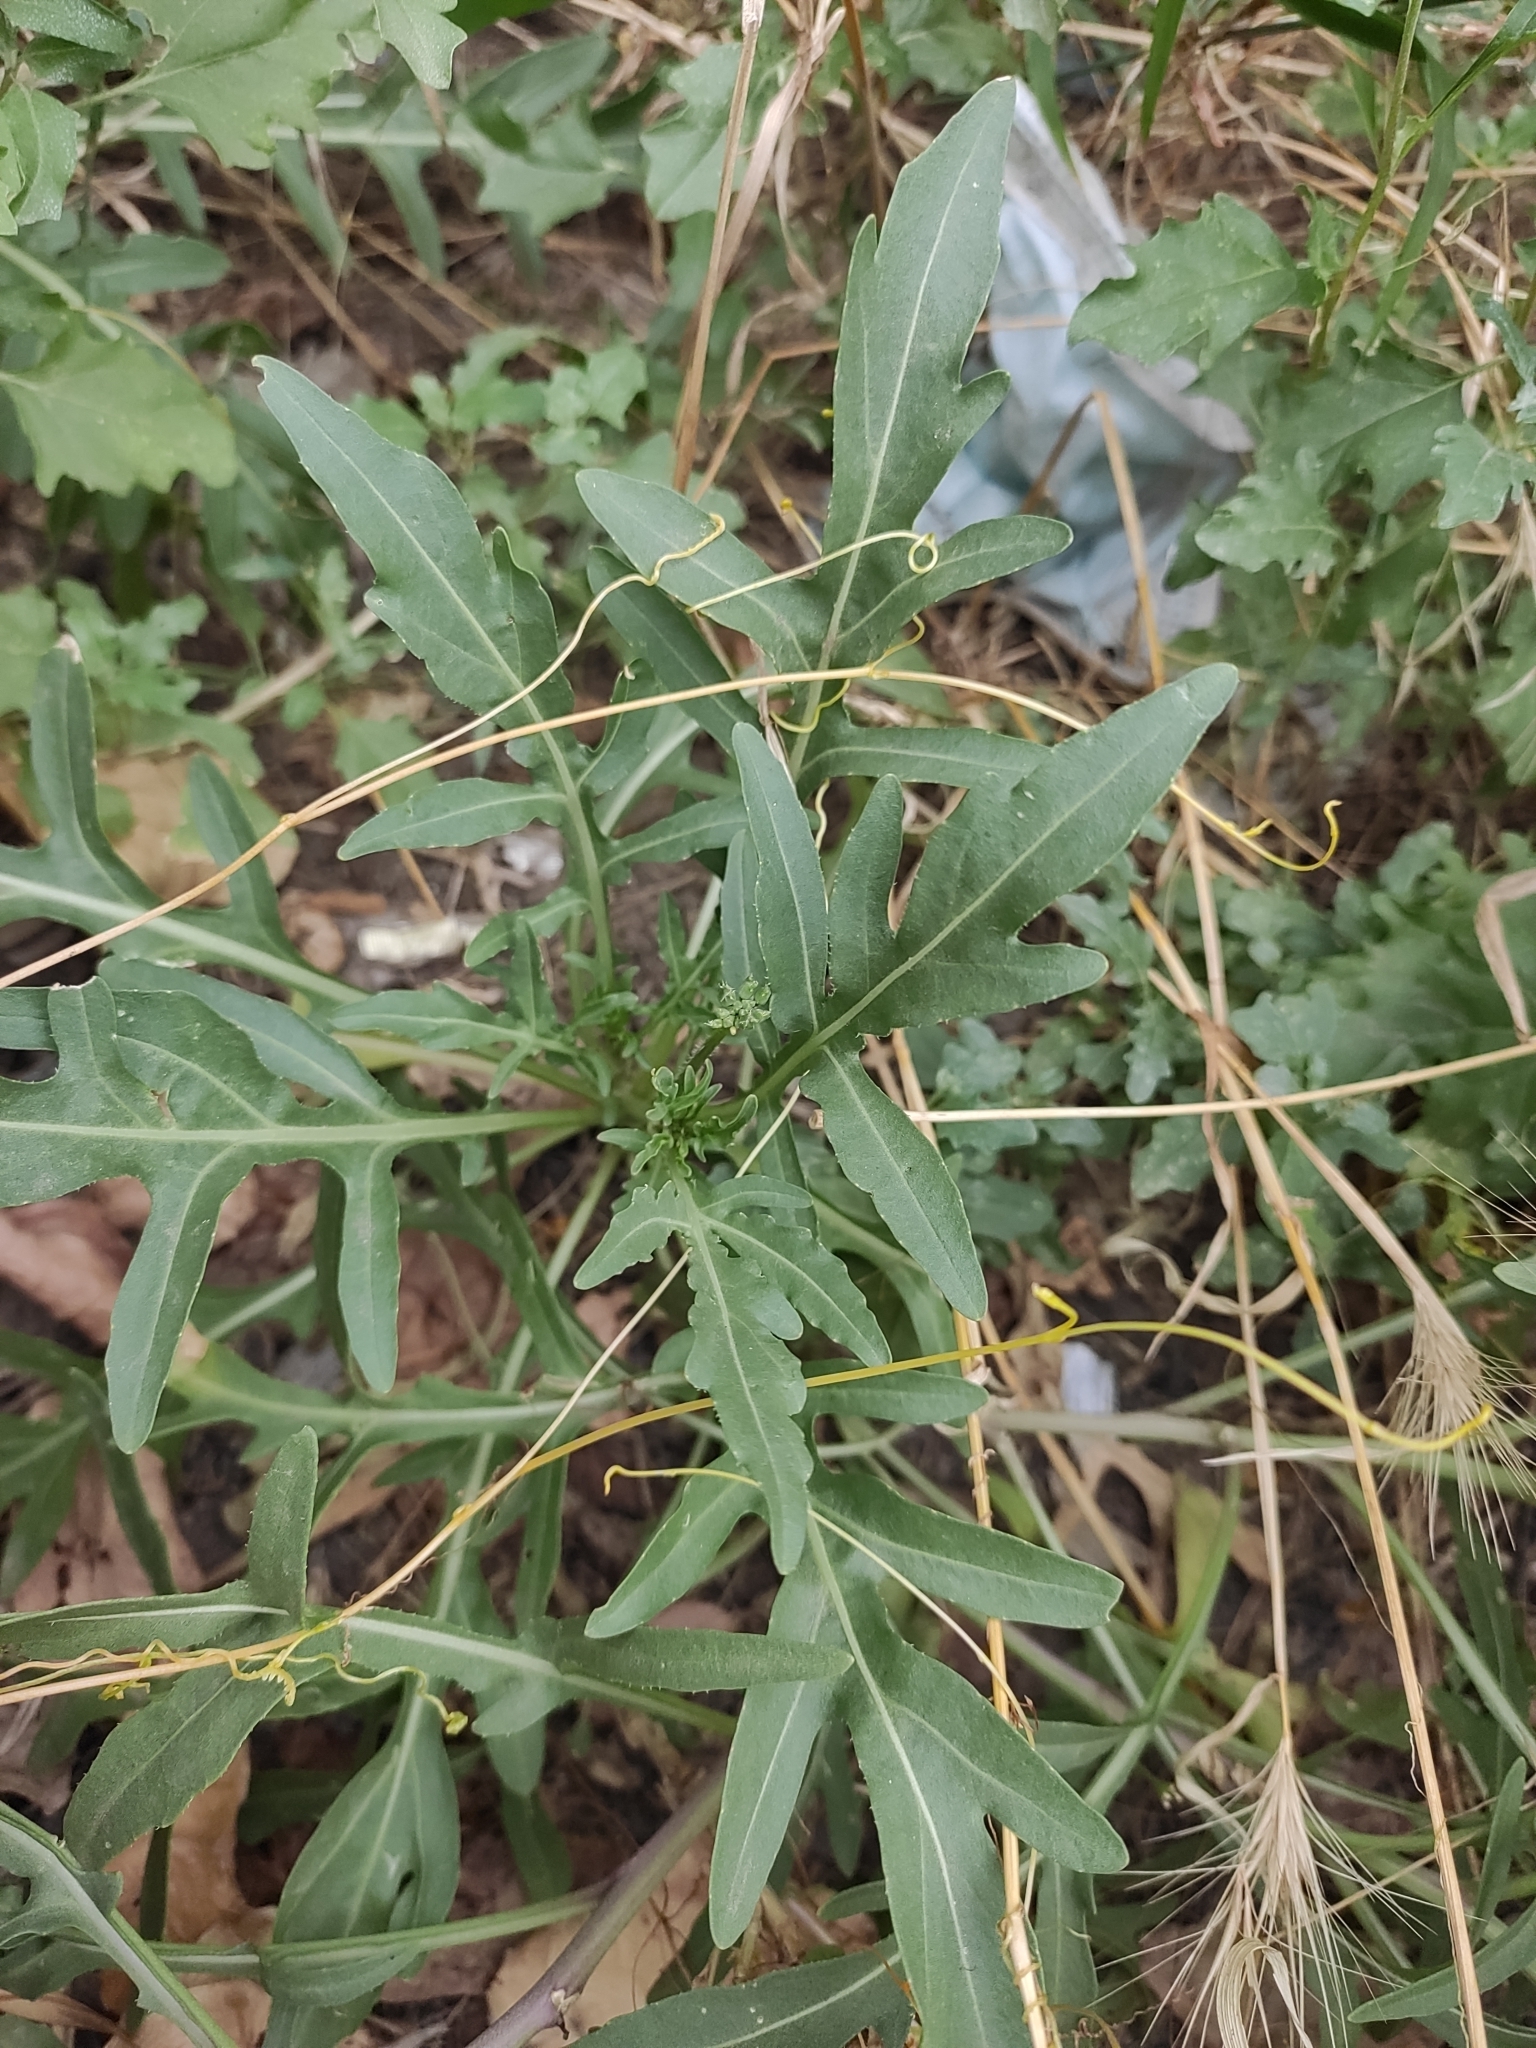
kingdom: Plantae
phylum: Tracheophyta
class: Magnoliopsida
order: Brassicales
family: Brassicaceae
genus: Diplotaxis
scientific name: Diplotaxis tenuifolia
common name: Perennial wall-rocket
